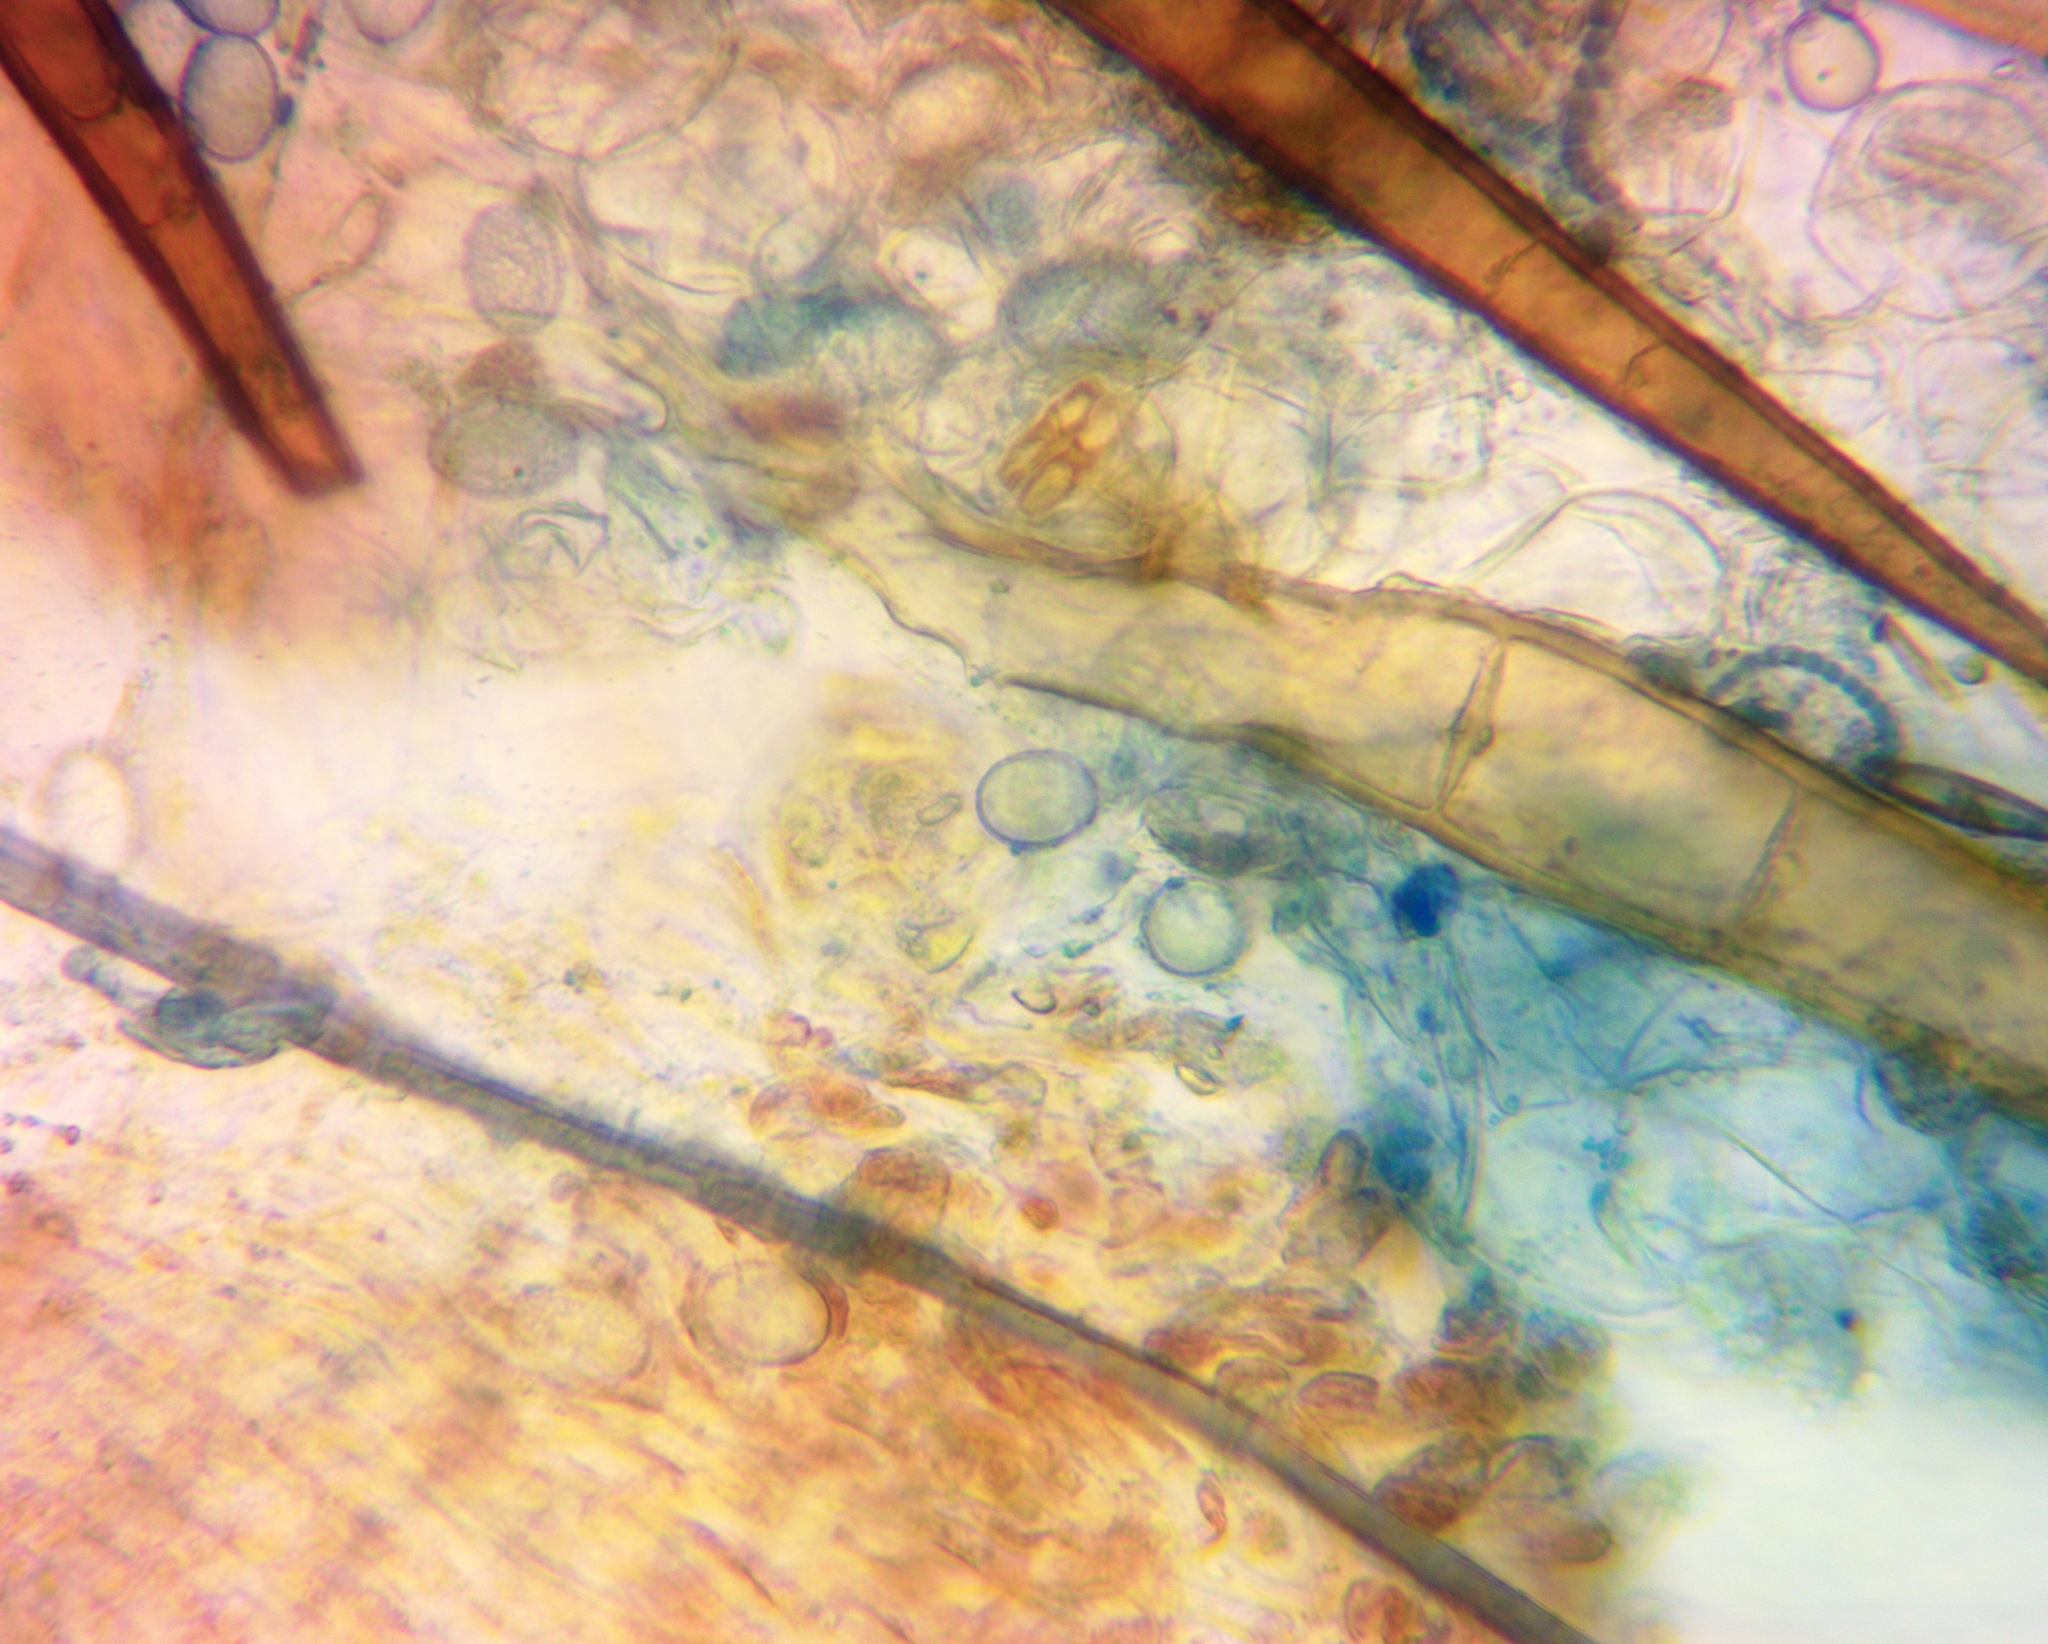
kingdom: Fungi
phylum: Ascomycota
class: Pezizomycetes
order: Pezizales
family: Pyronemataceae
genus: Scutellinia
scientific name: Scutellinia vitreola
